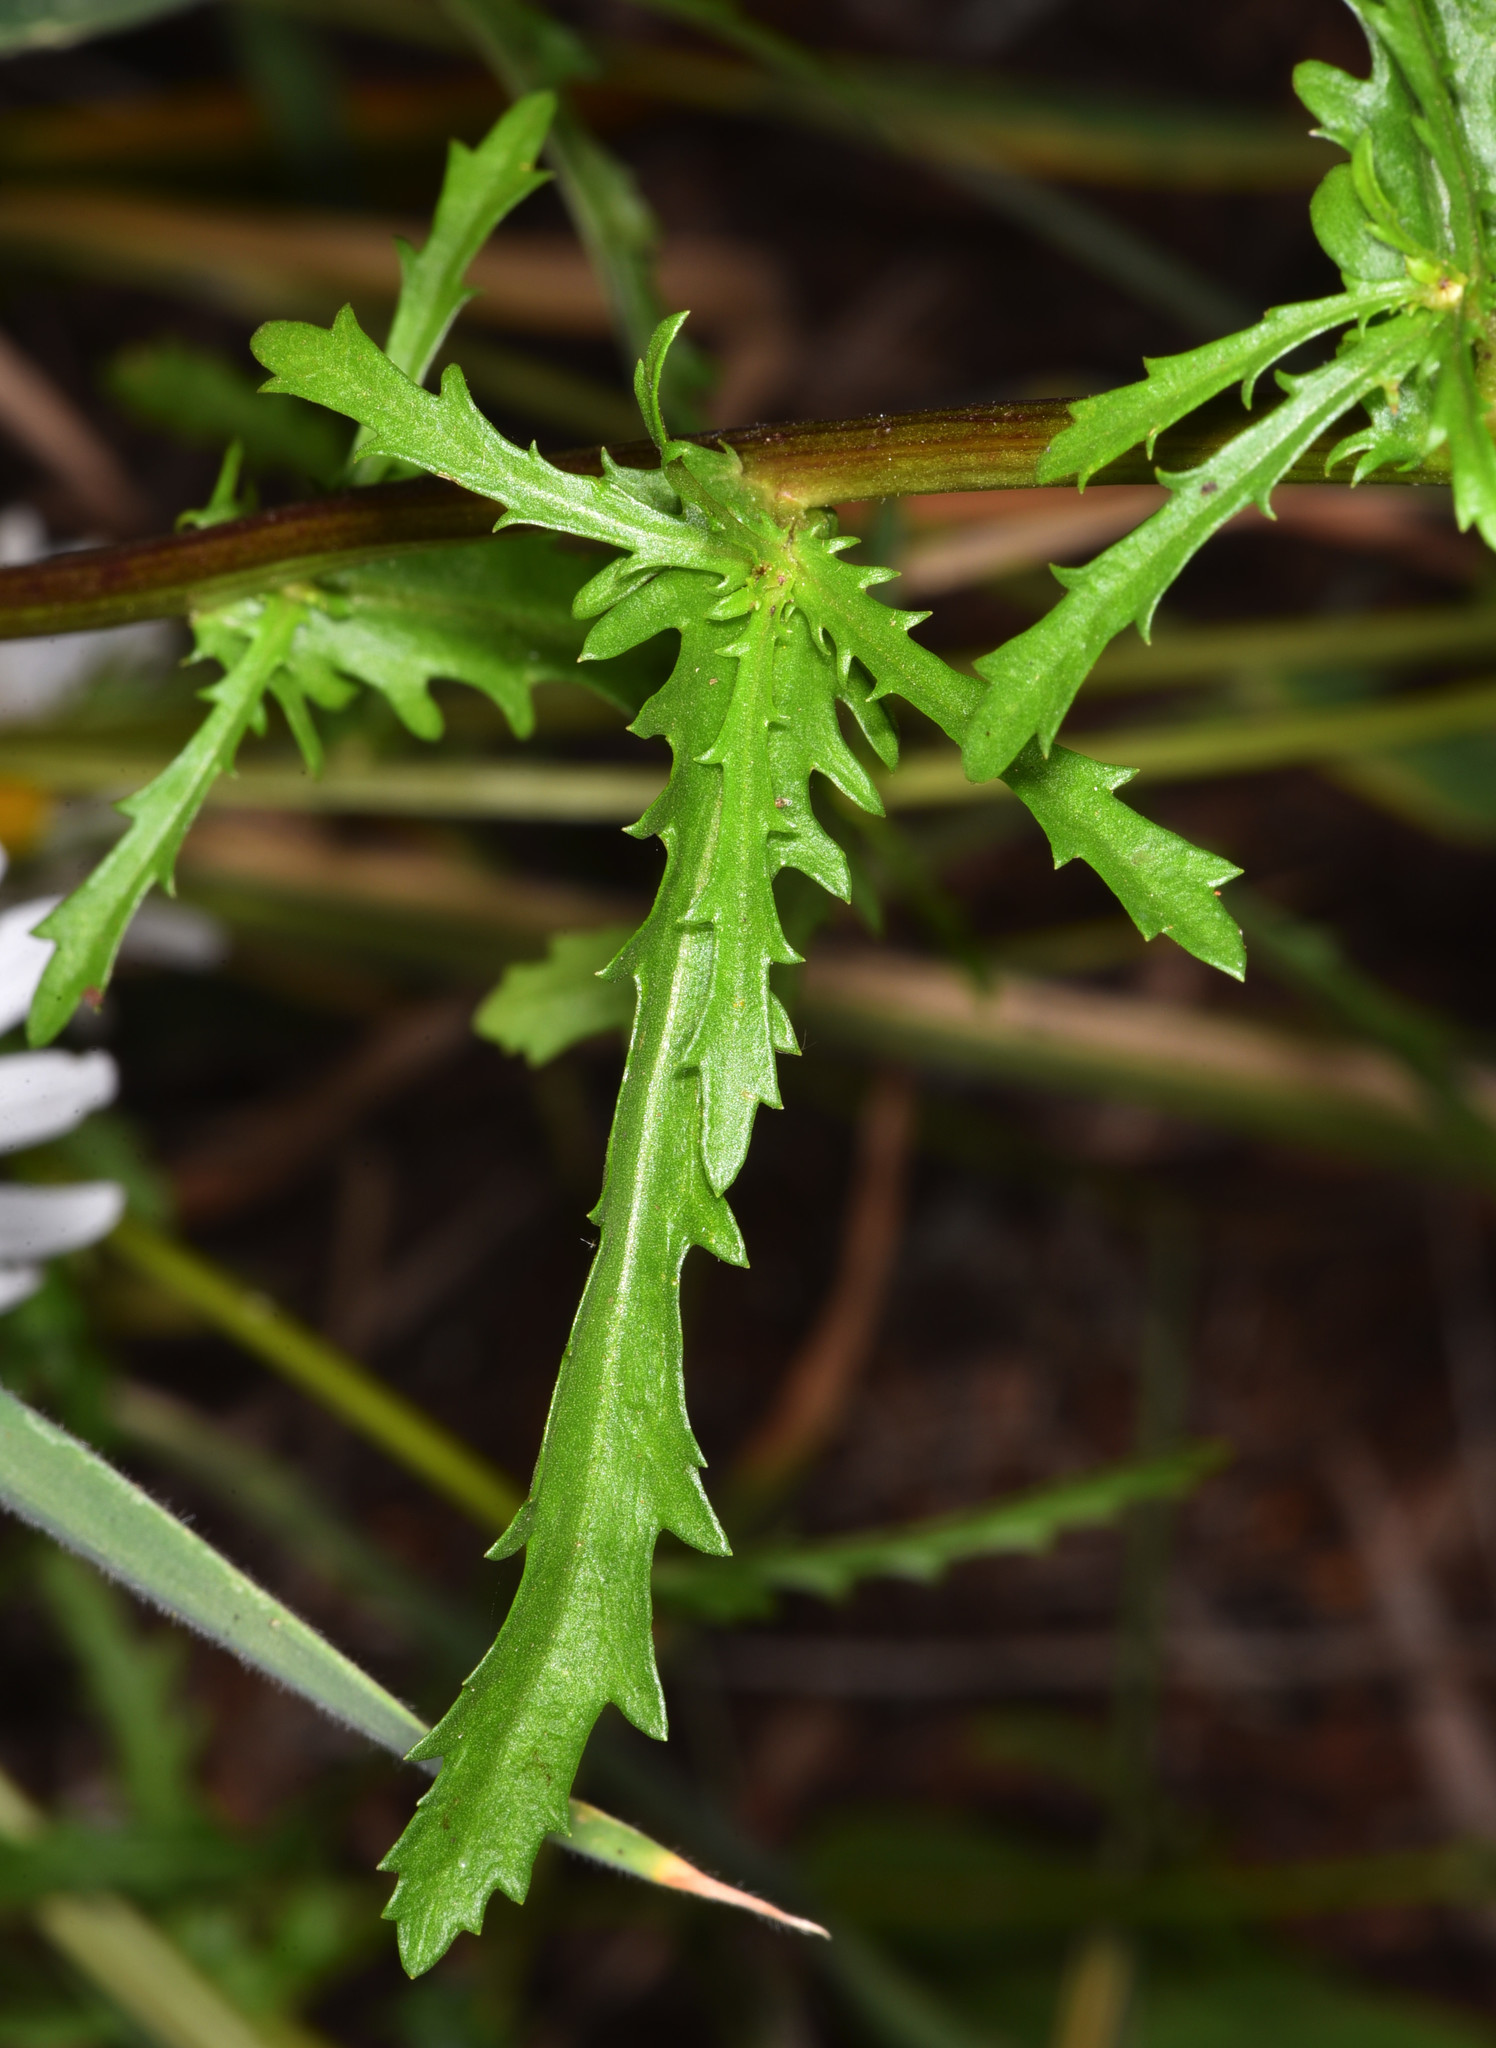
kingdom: Plantae
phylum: Tracheophyta
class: Magnoliopsida
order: Asterales
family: Asteraceae
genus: Leucanthemum
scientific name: Leucanthemum vulgare
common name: Oxeye daisy
